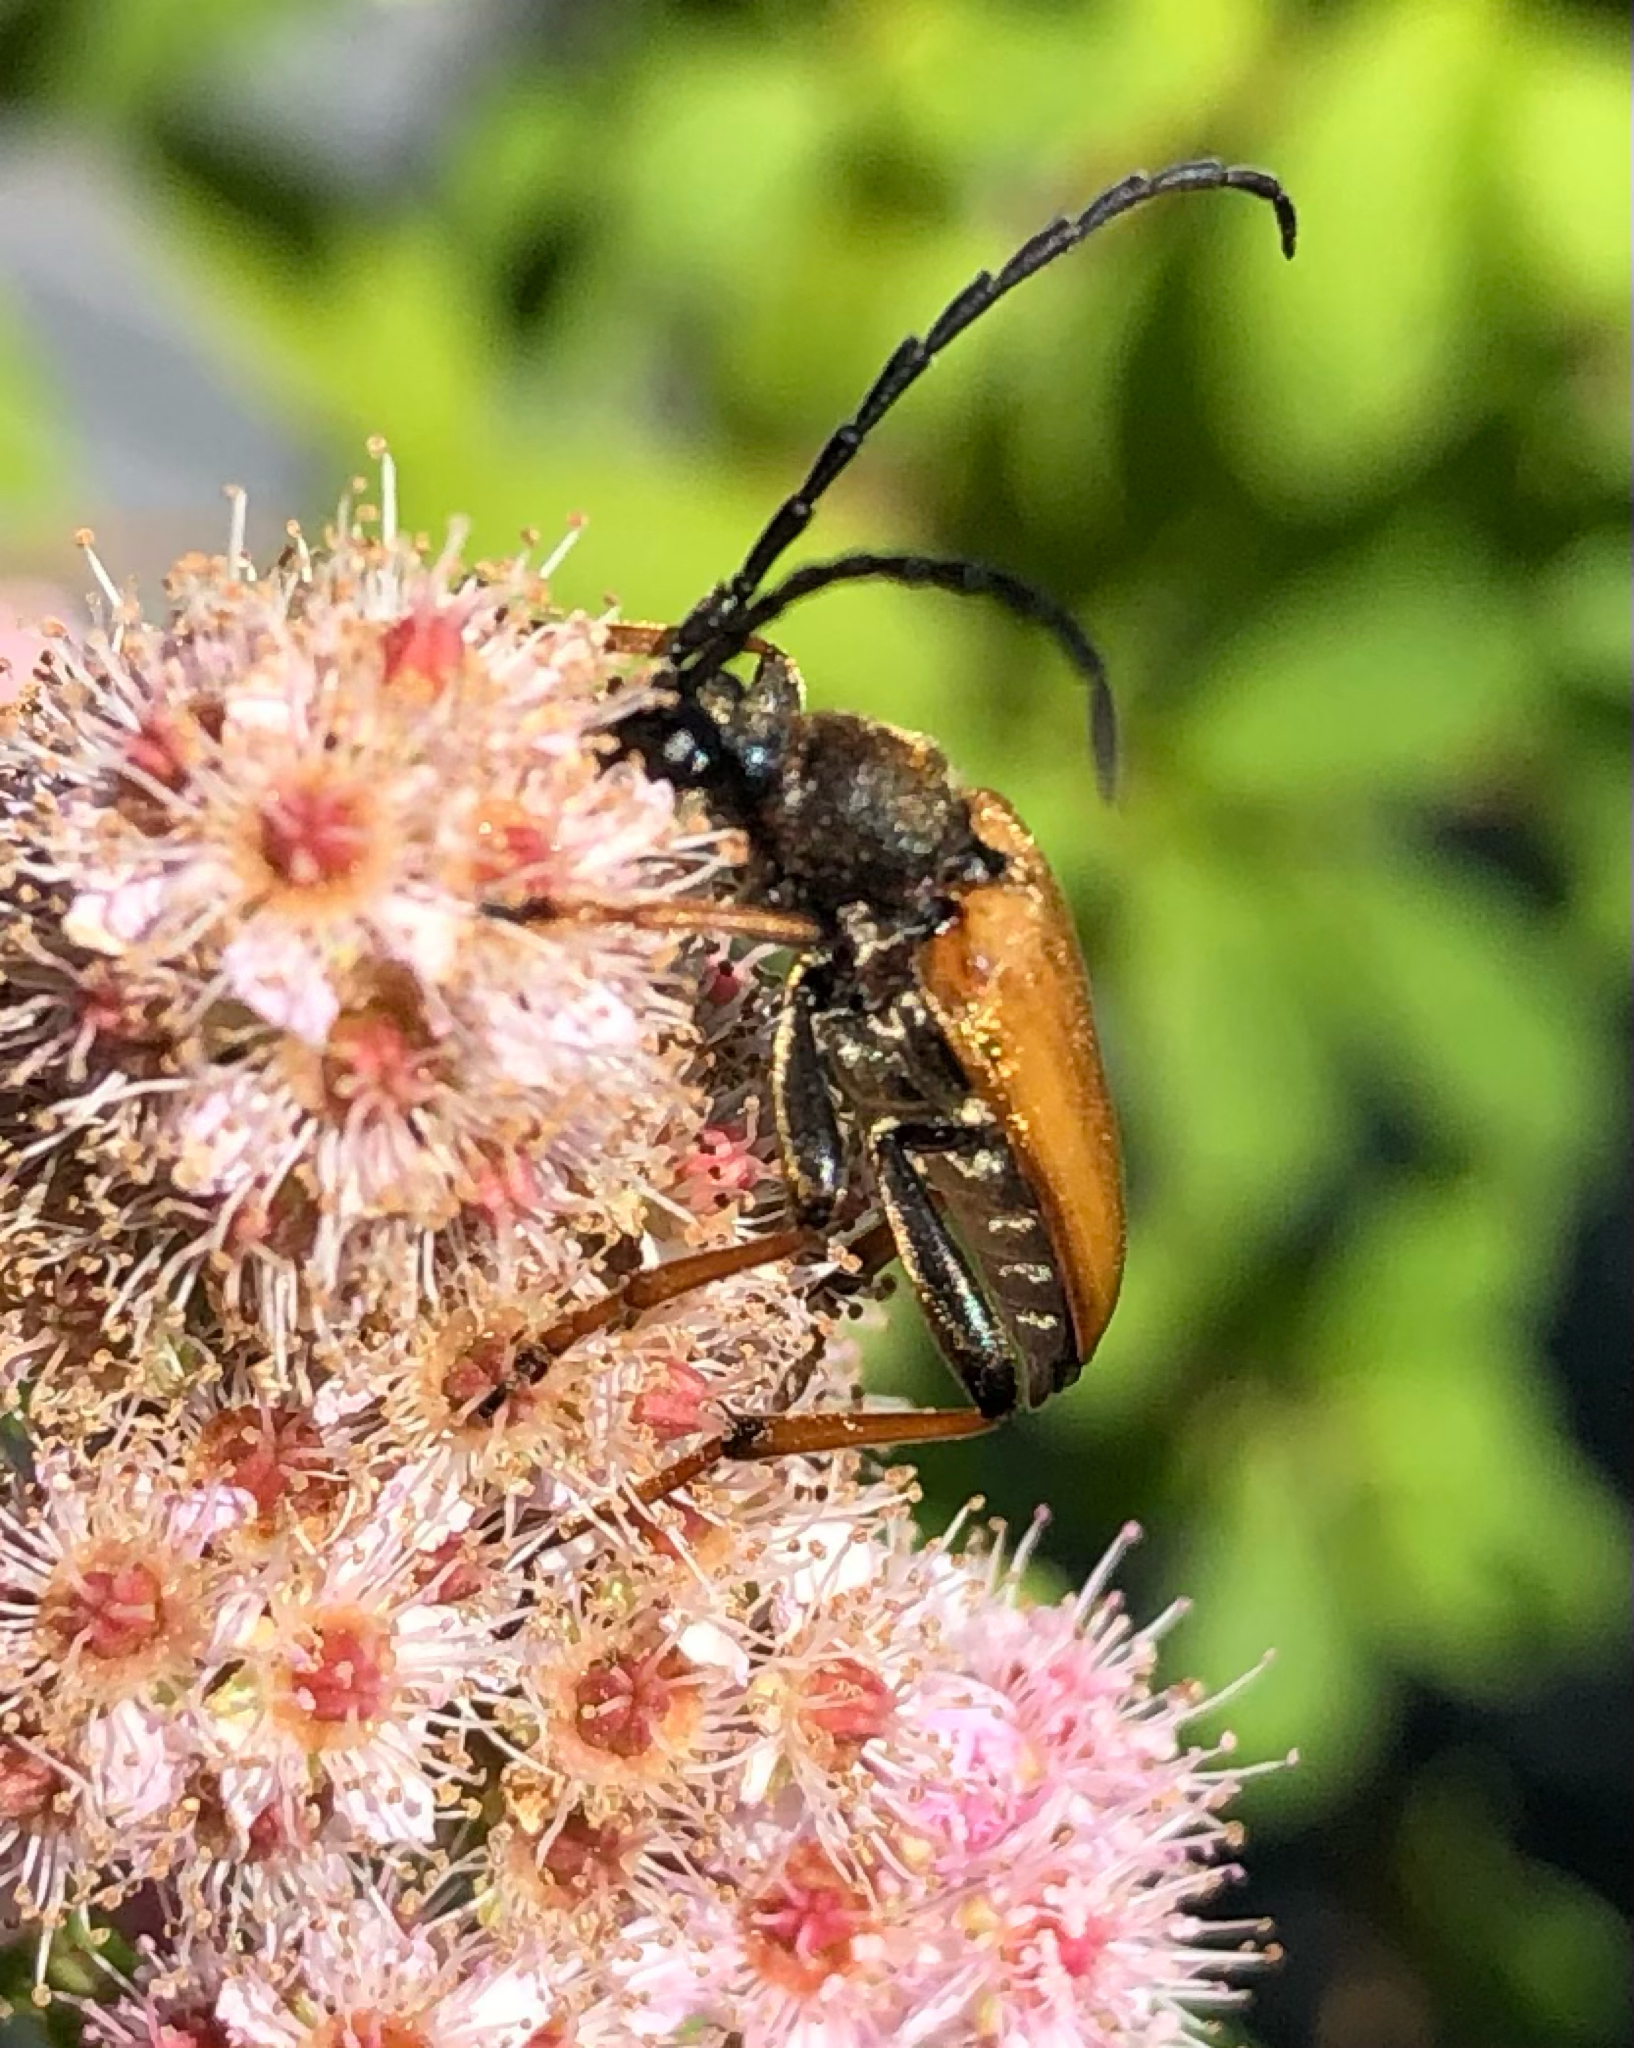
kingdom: Animalia
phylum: Arthropoda
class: Insecta
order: Coleoptera
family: Cerambycidae
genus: Stictoleptura
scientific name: Stictoleptura rubra
